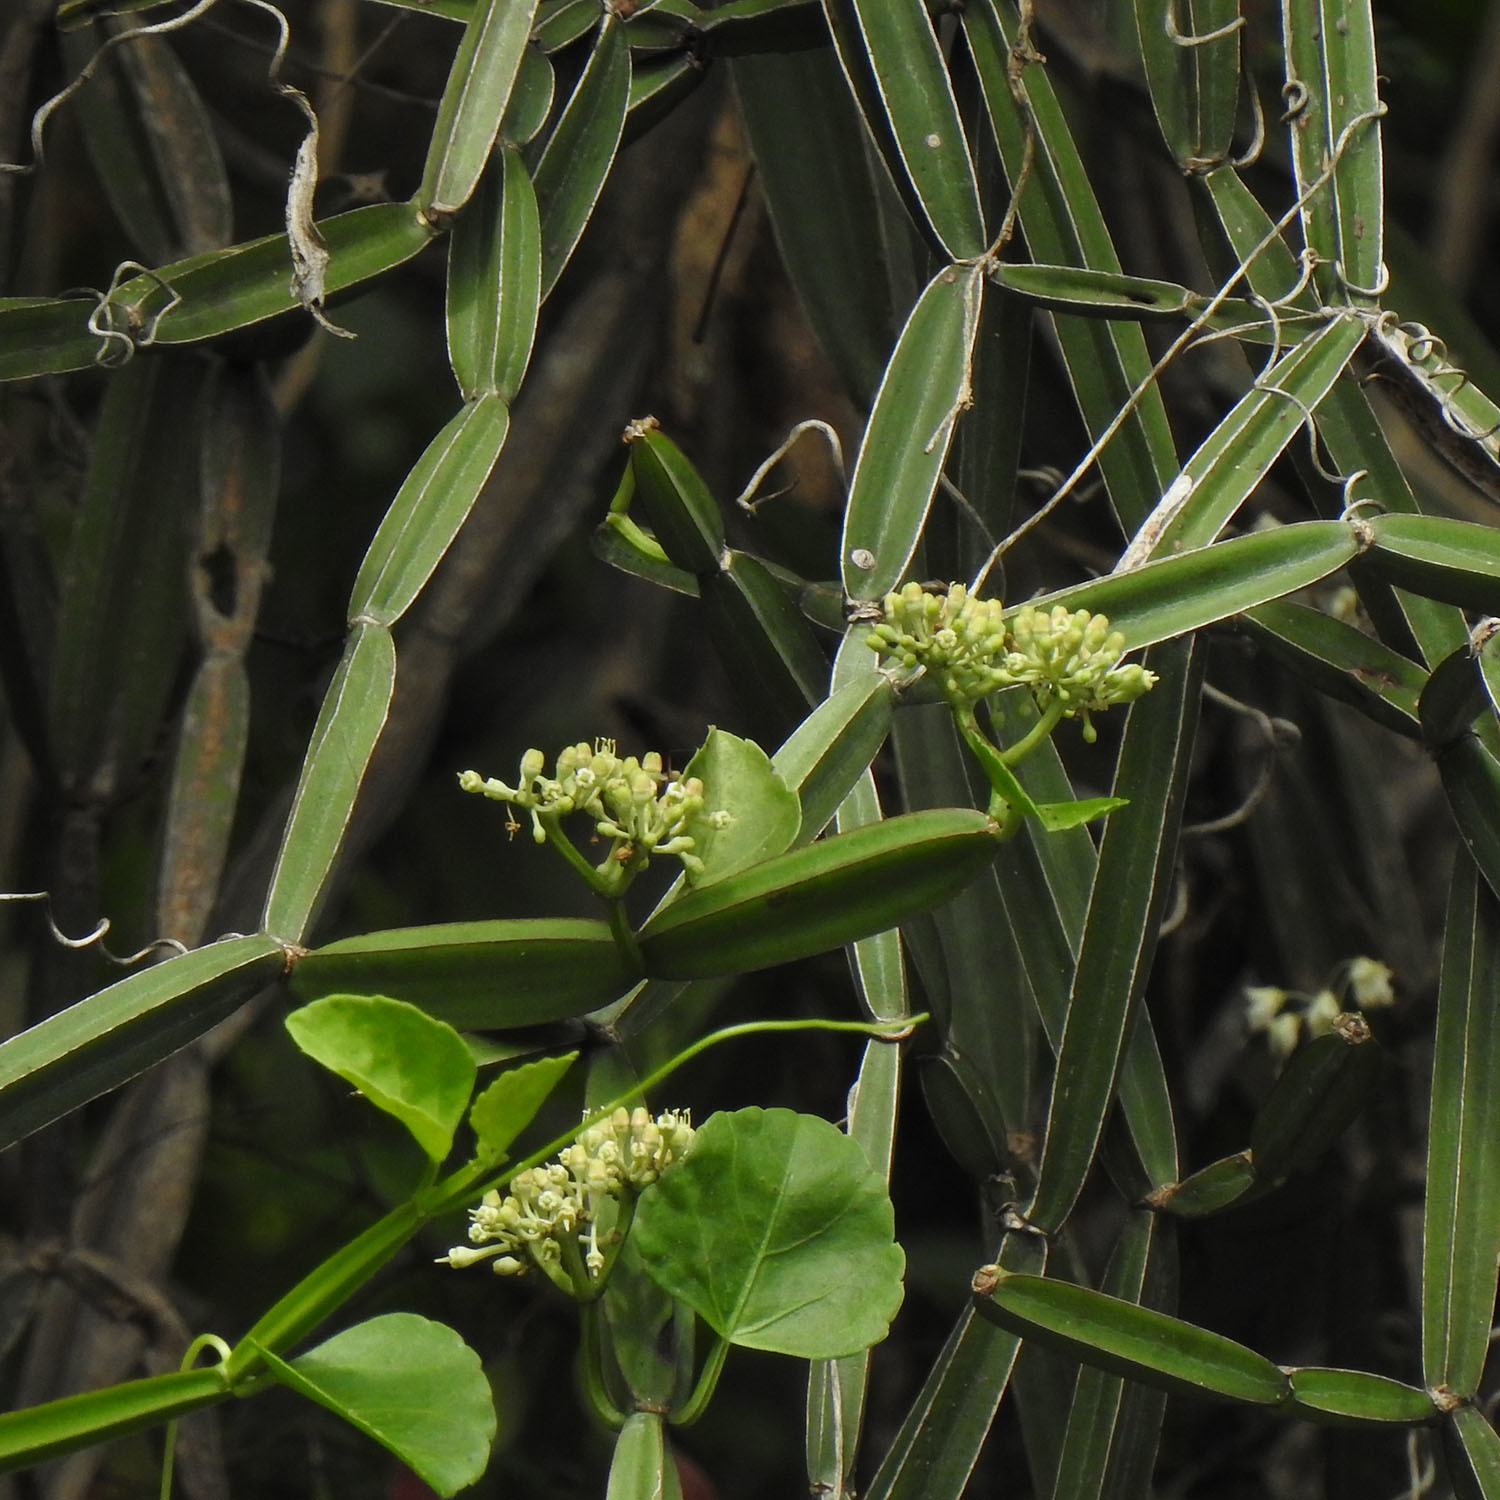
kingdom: Plantae
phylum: Tracheophyta
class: Magnoliopsida
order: Vitales
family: Vitaceae
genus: Cissus
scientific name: Cissus quadrangularis
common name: Veldt-grape
